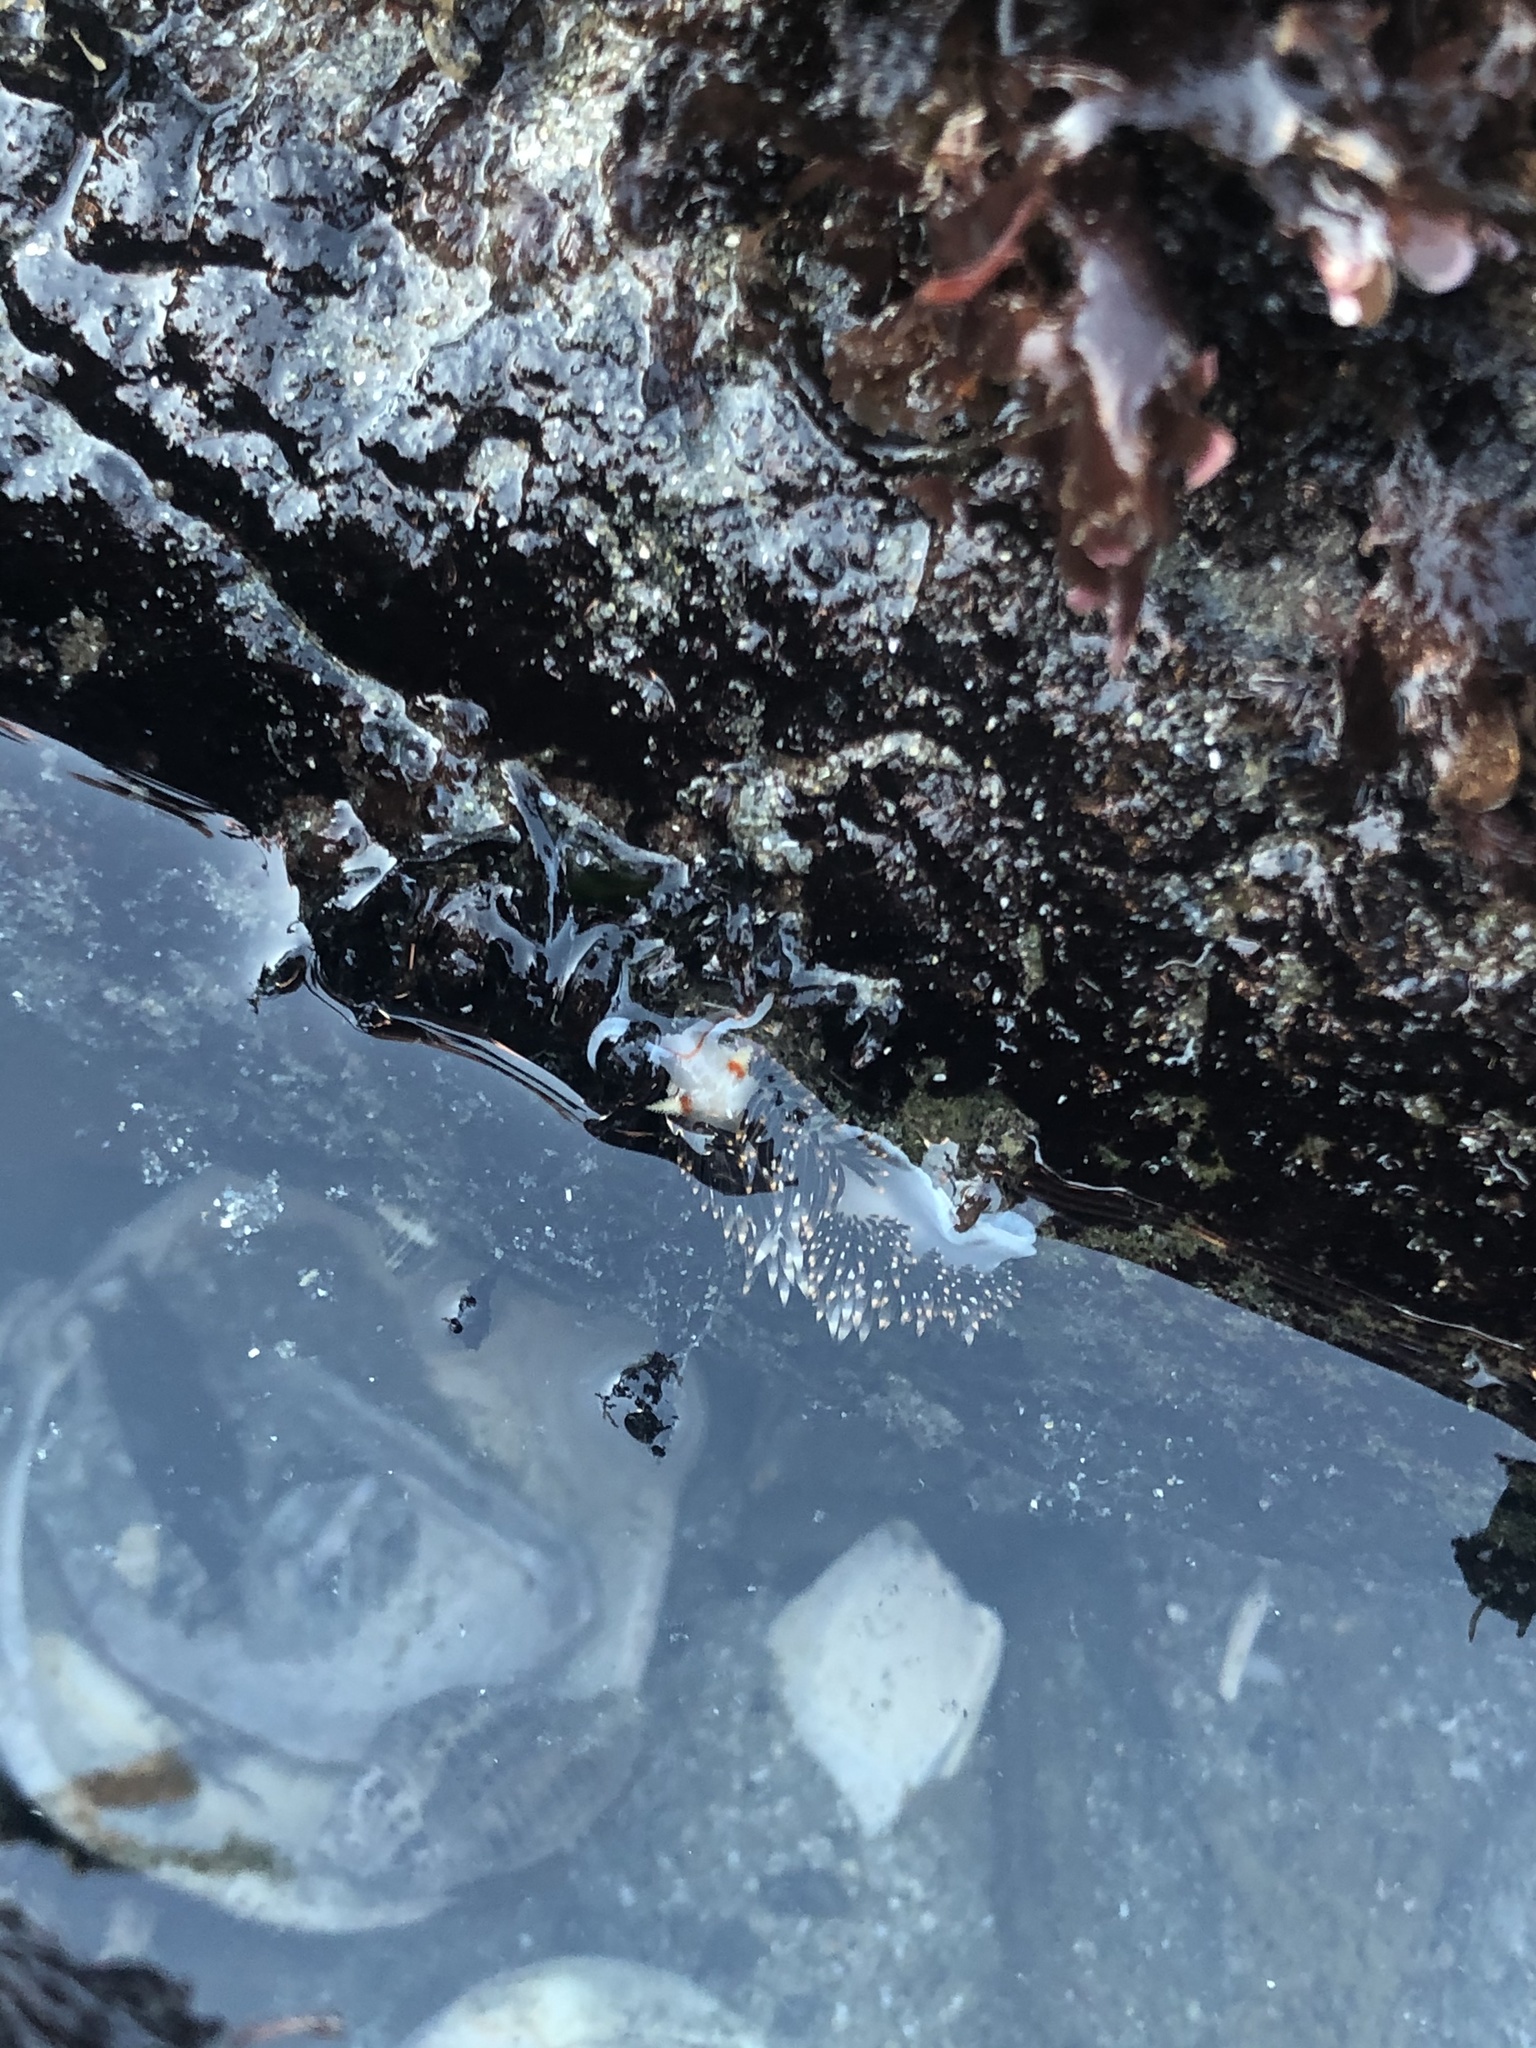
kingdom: Animalia
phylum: Mollusca
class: Gastropoda
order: Nudibranchia
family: Facelinidae
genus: Phidiana
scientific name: Phidiana hiltoni
